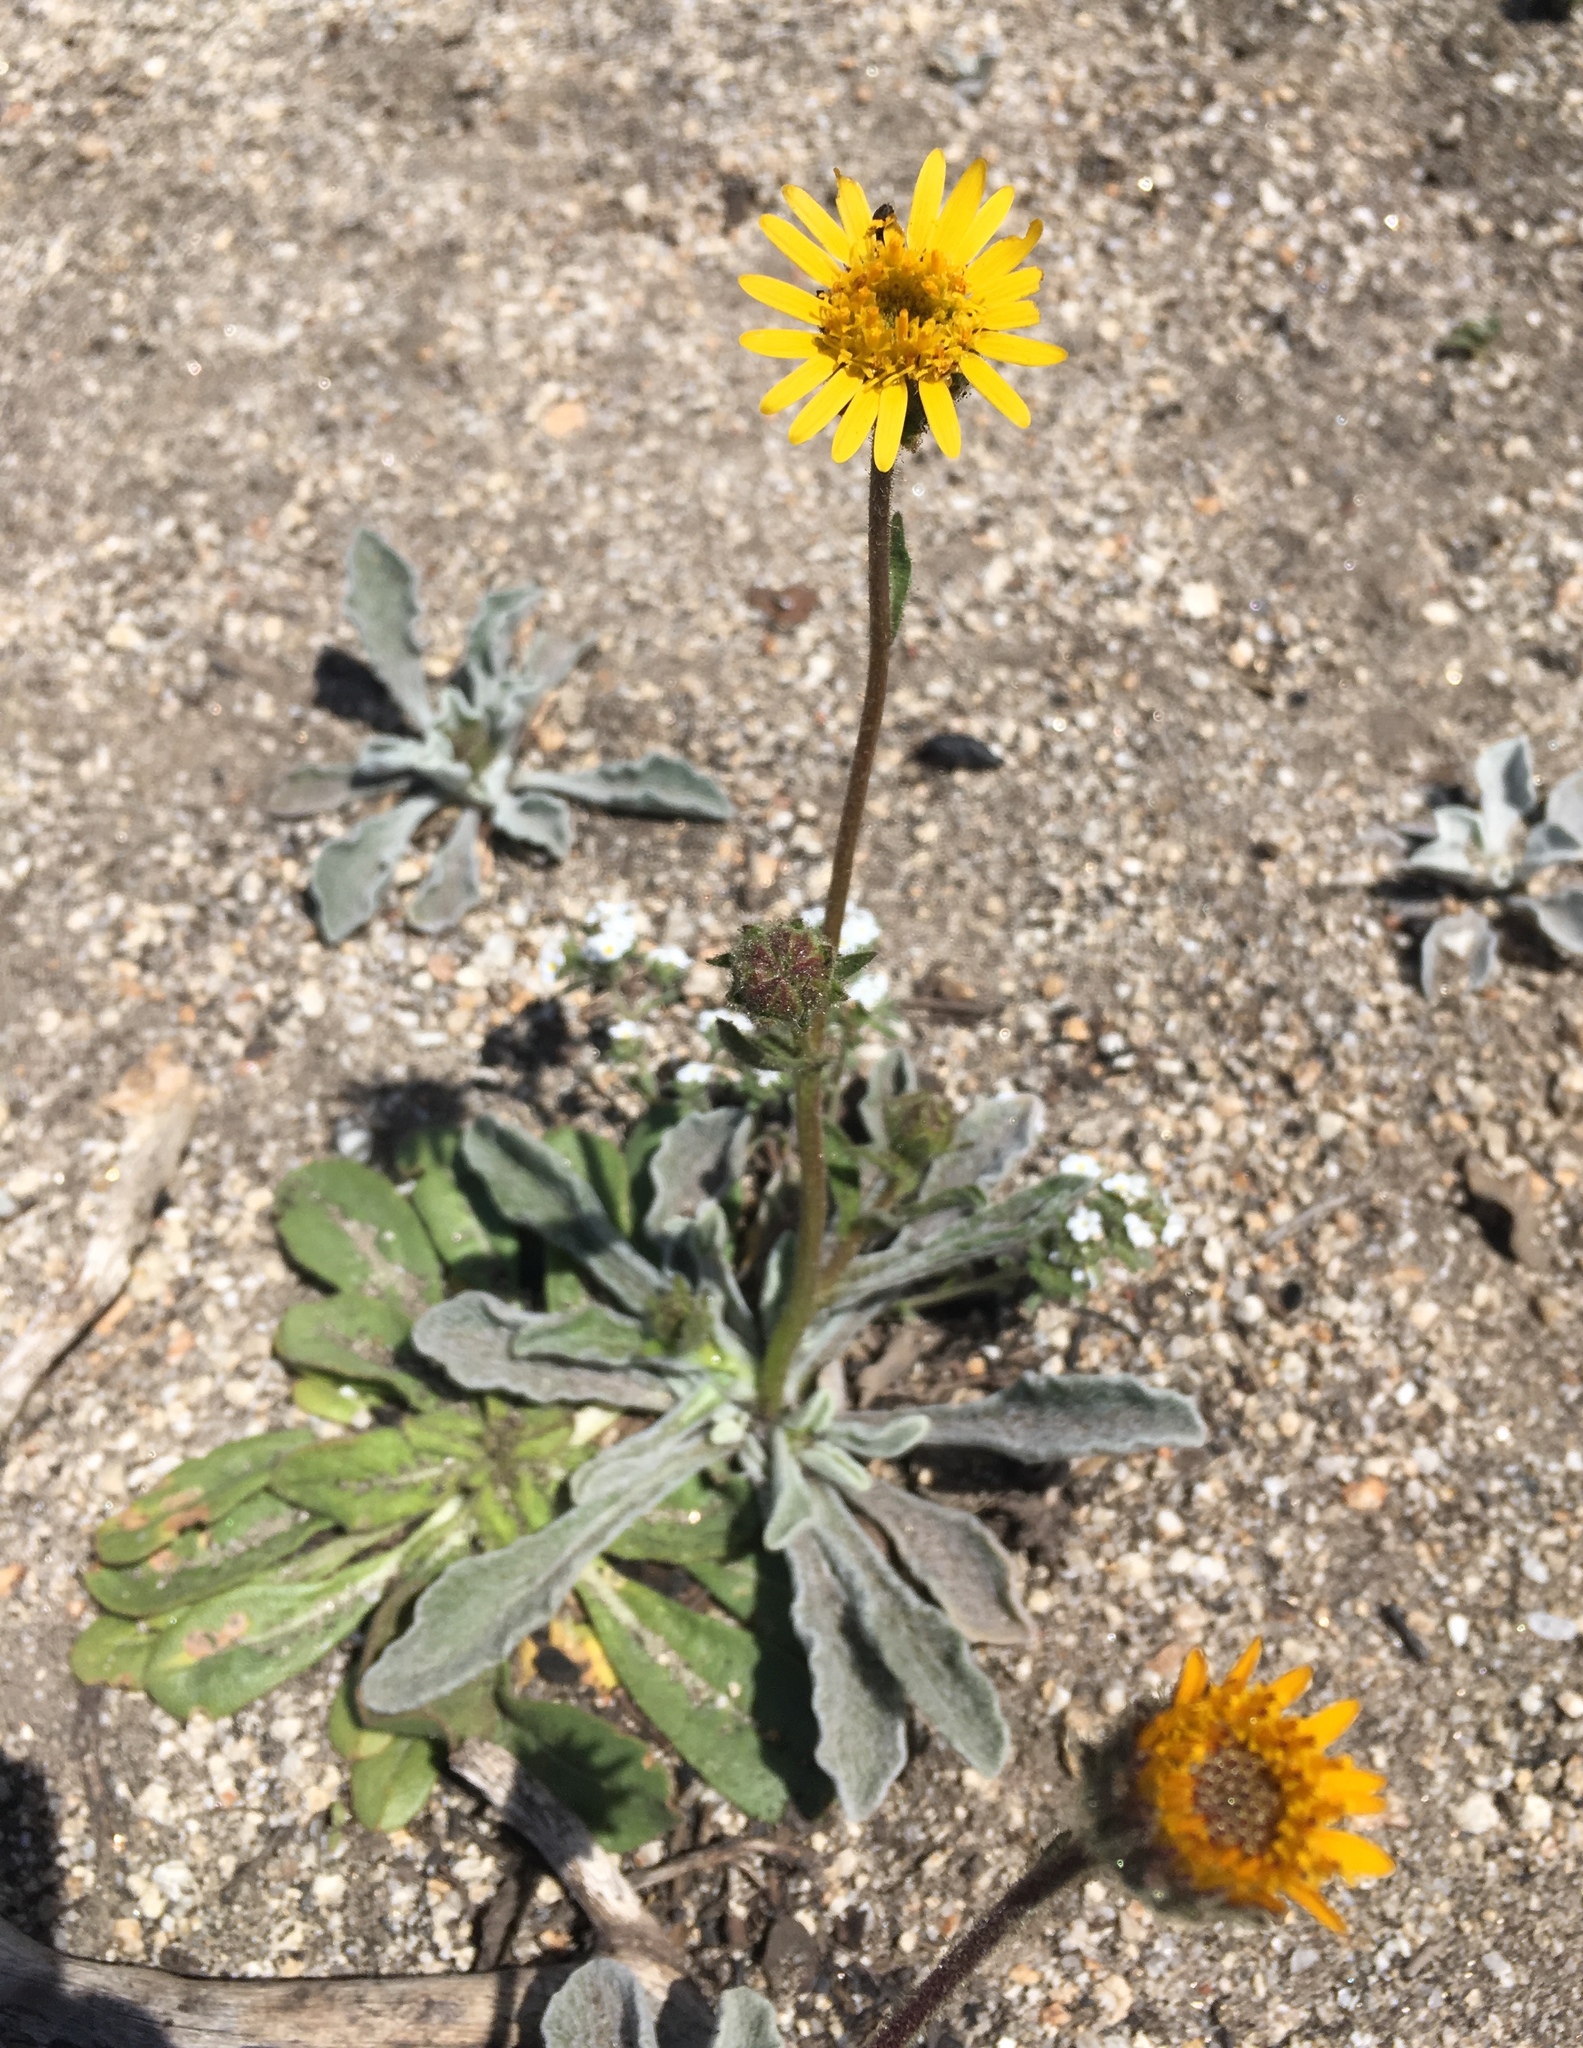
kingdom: Plantae
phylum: Tracheophyta
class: Magnoliopsida
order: Asterales
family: Asteraceae
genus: Hulsea
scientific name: Hulsea vestita
